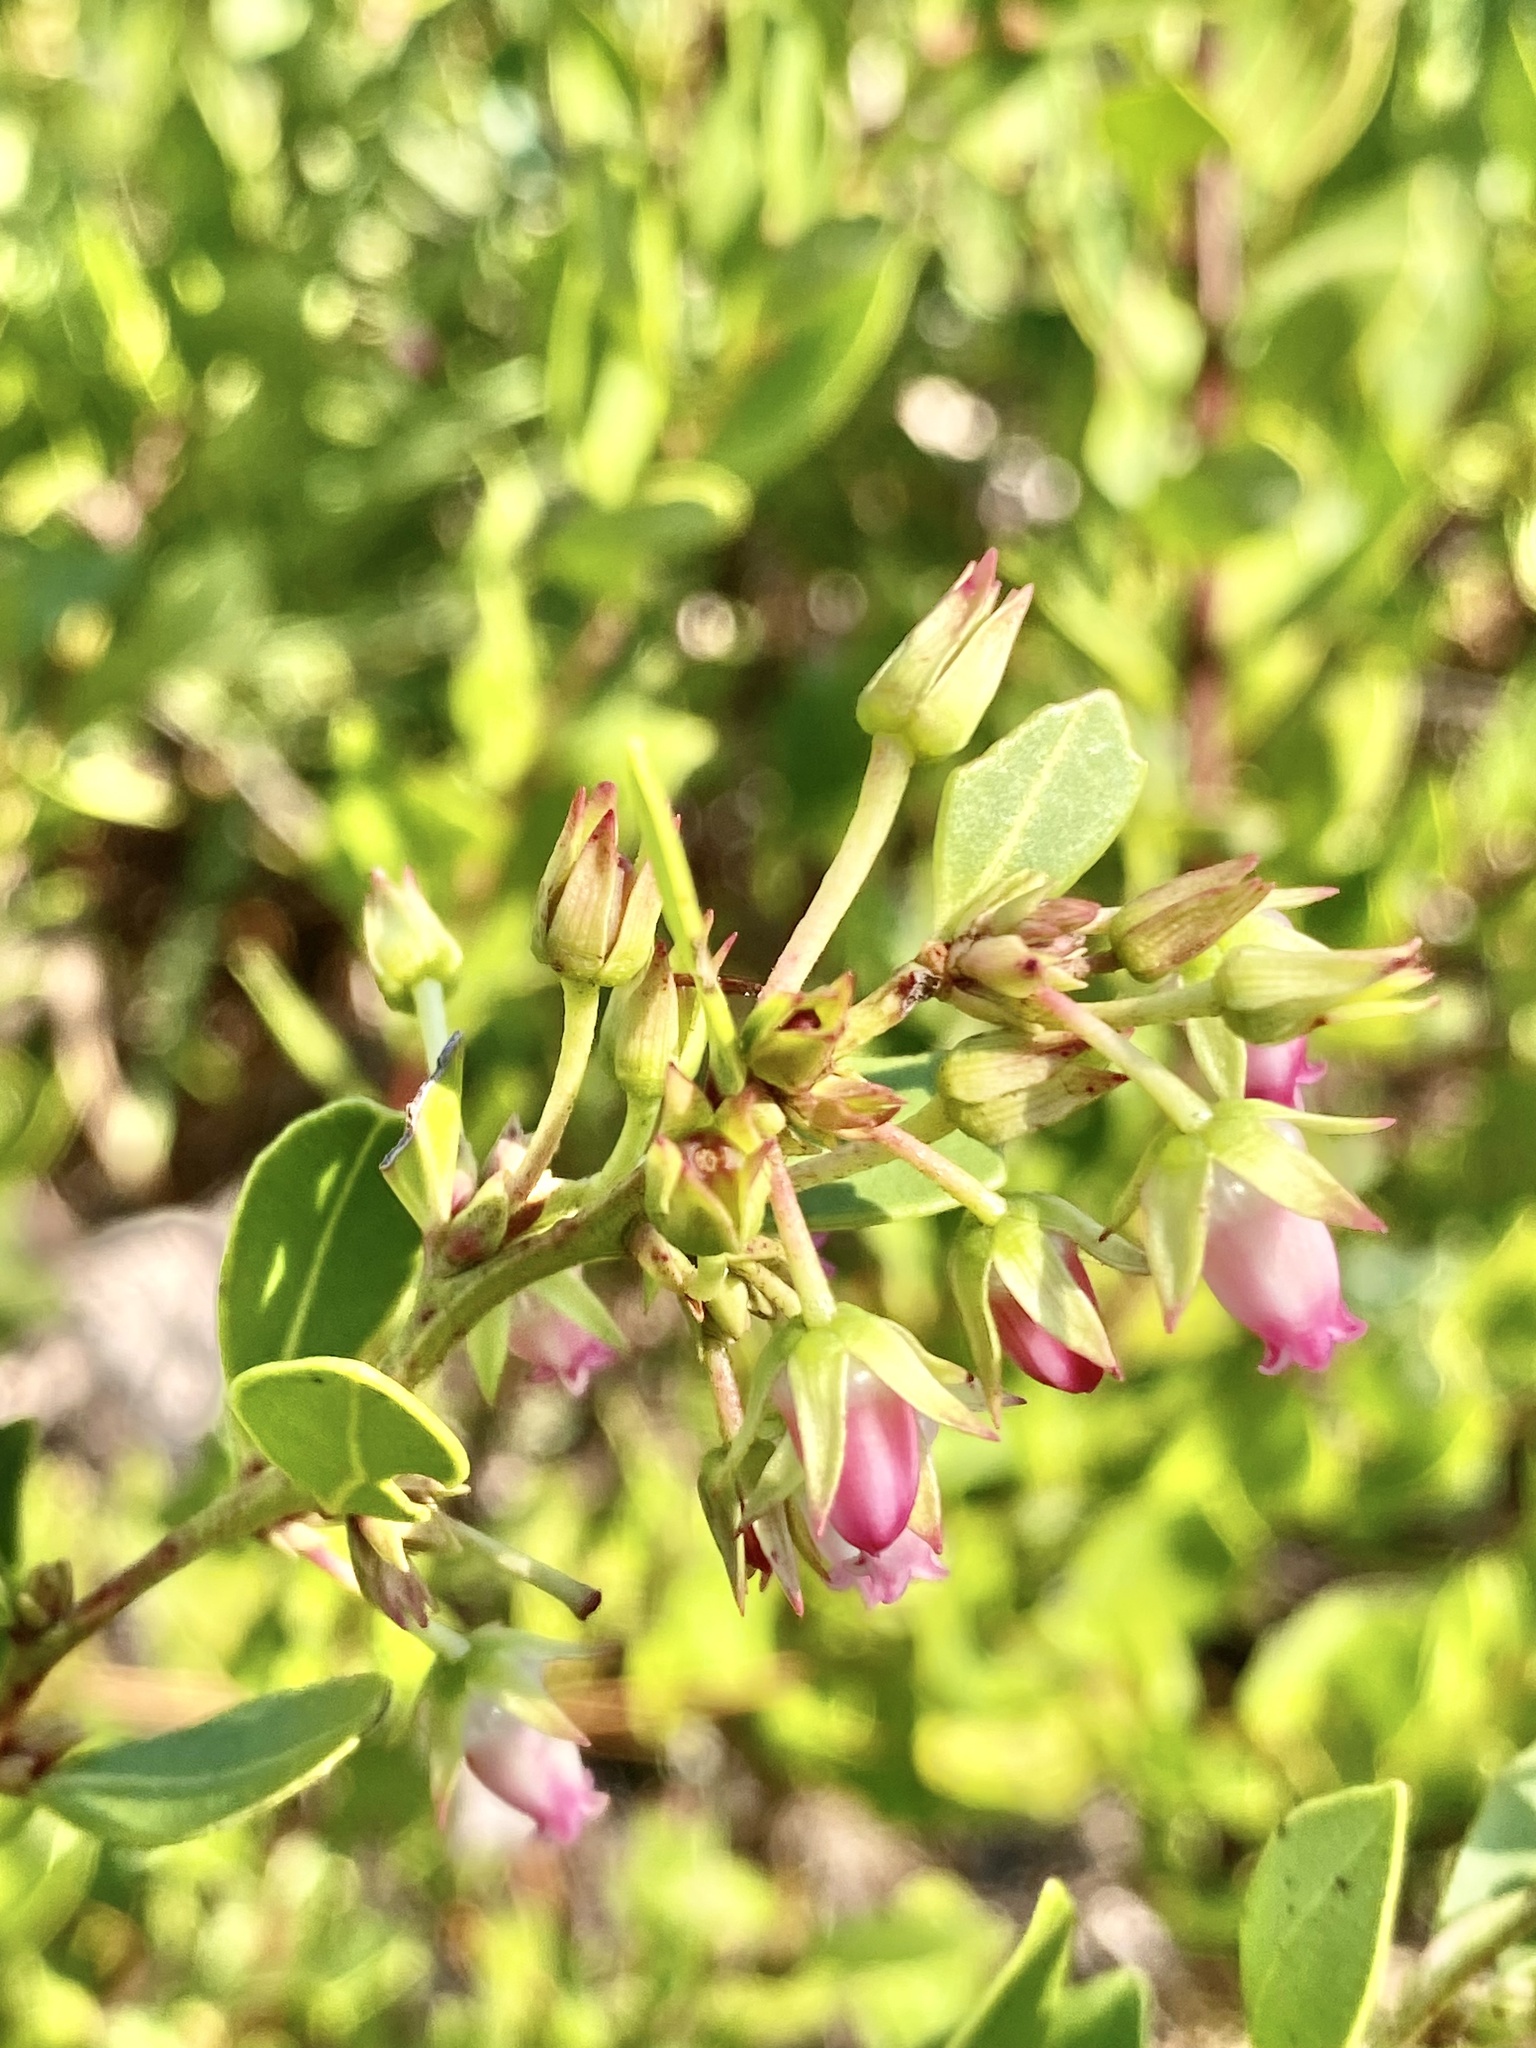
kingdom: Plantae
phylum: Tracheophyta
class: Magnoliopsida
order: Ericales
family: Ericaceae
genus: Lyonia
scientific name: Lyonia lucida
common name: Fetterbush
